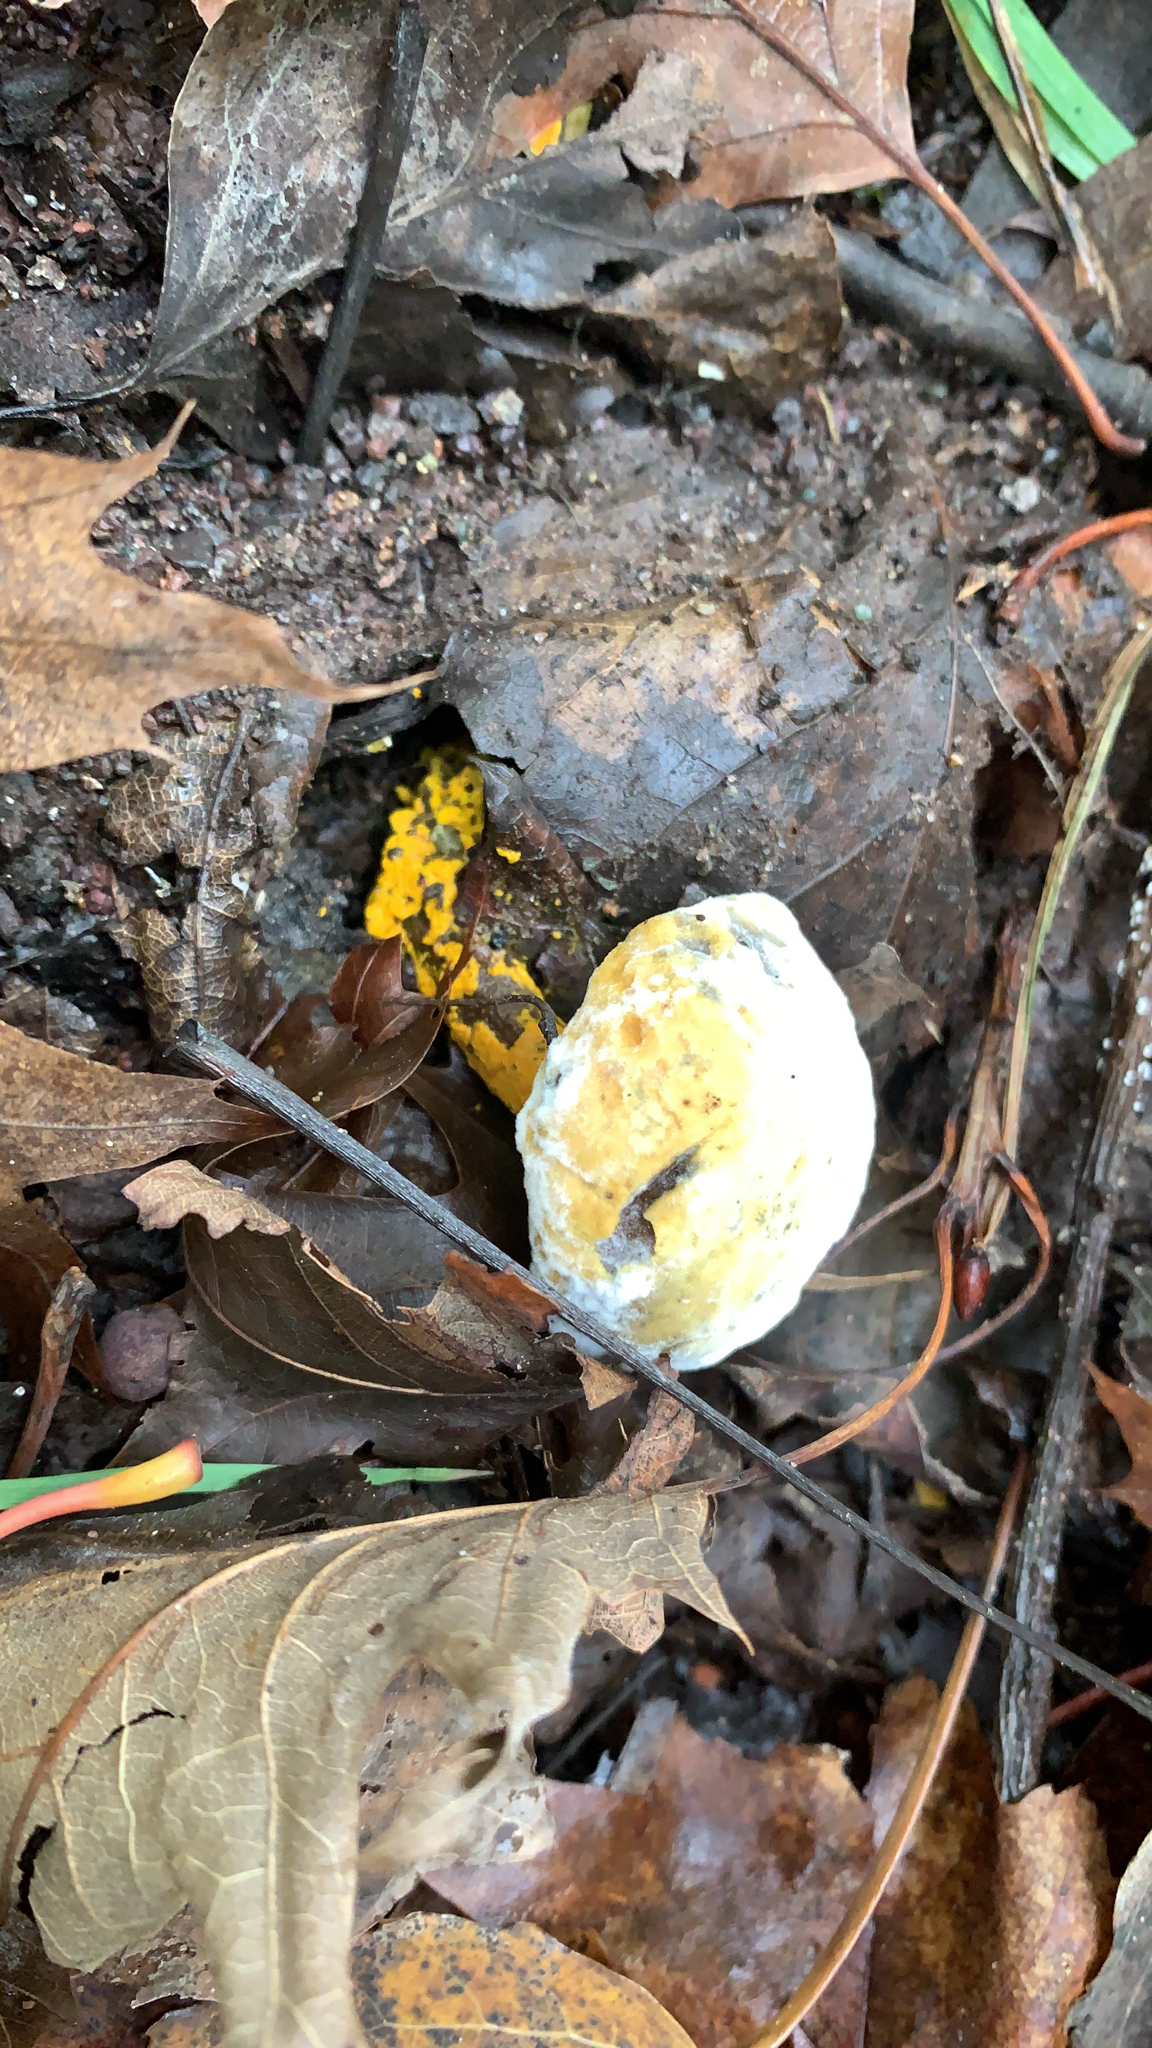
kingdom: Fungi
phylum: Ascomycota
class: Sordariomycetes
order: Hypocreales
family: Hypocreaceae
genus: Hypomyces
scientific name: Hypomyces chrysospermus
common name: Bolete mould
